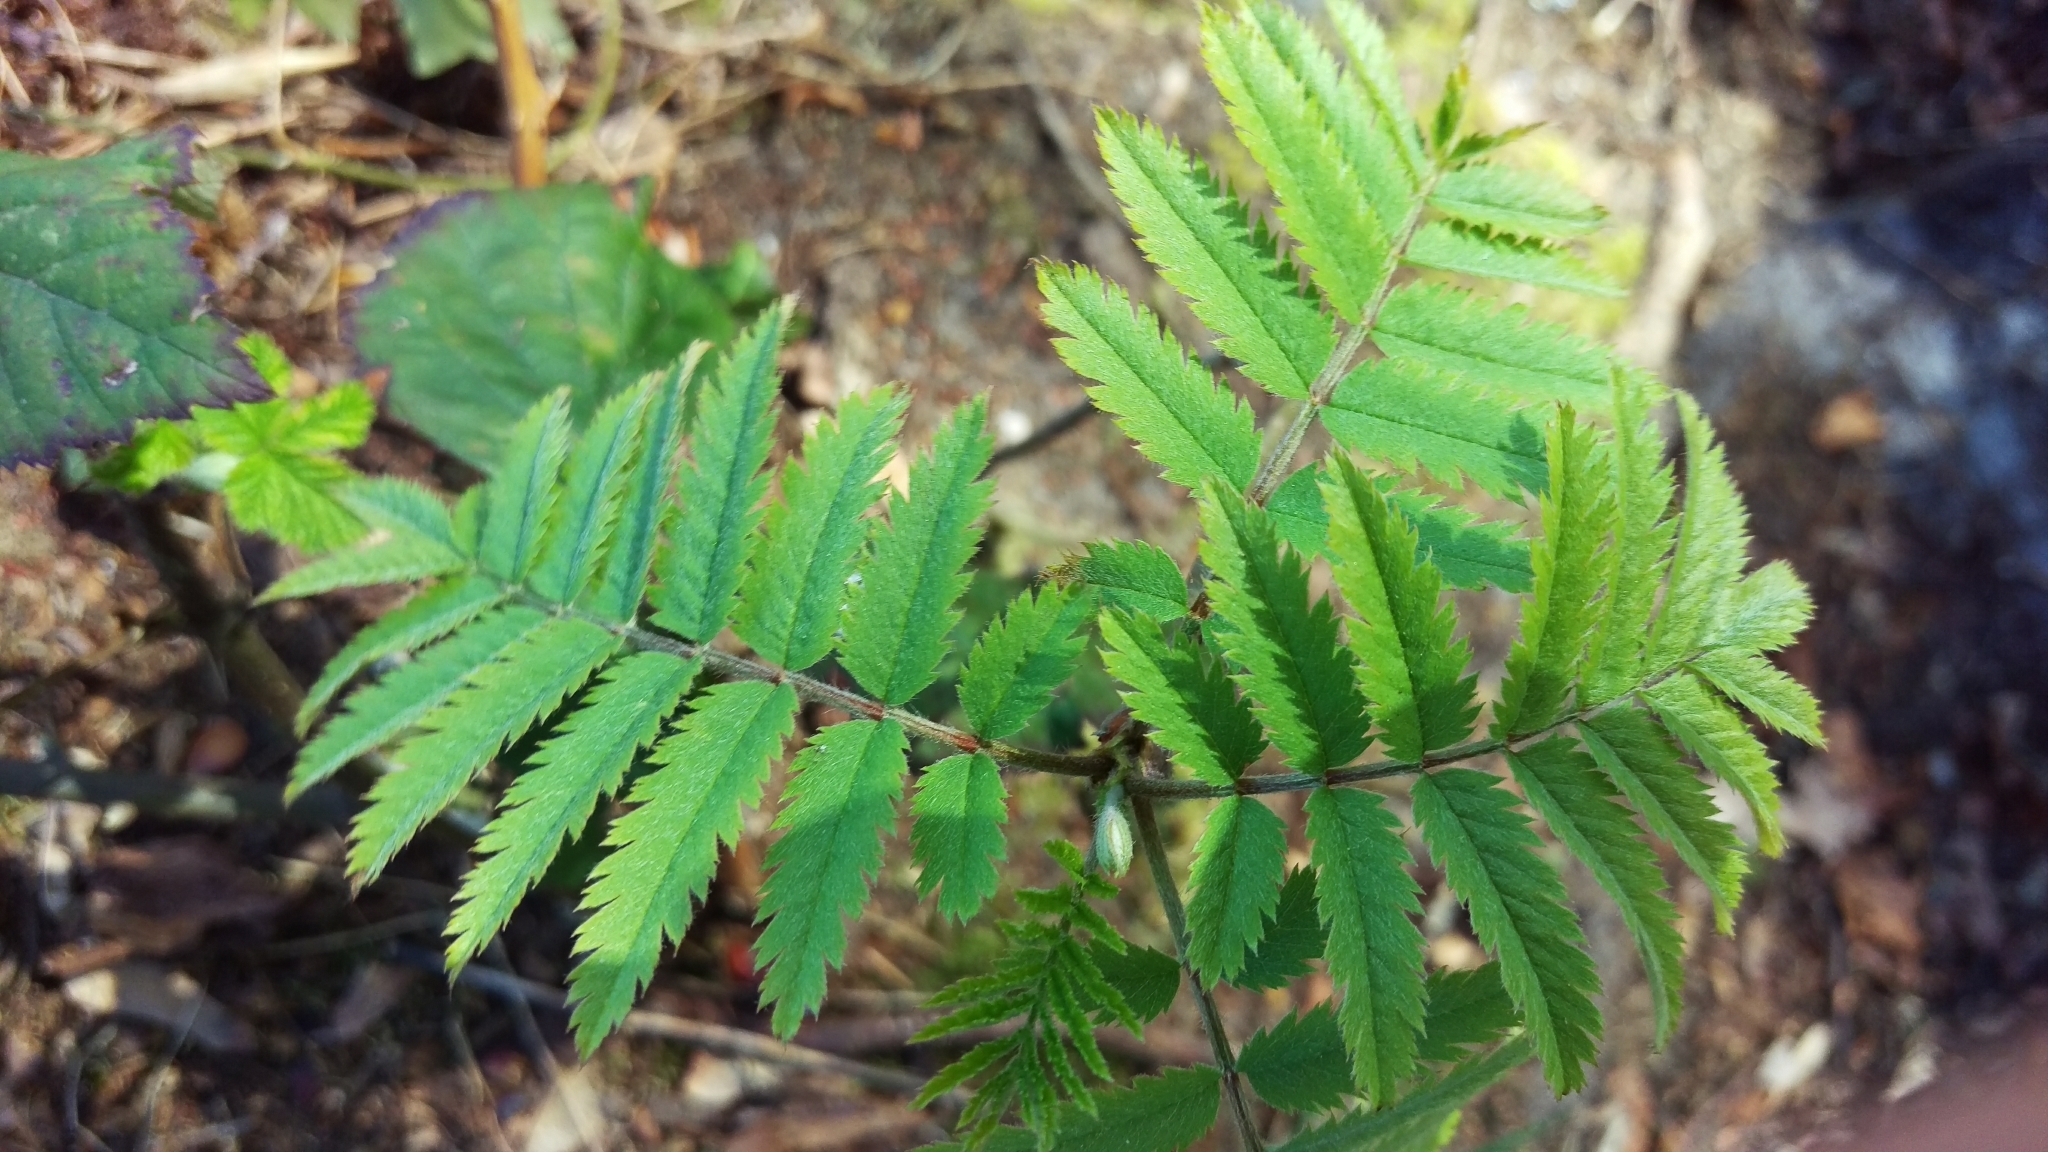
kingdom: Plantae
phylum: Tracheophyta
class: Magnoliopsida
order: Rosales
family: Rosaceae
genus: Sorbus
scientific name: Sorbus aucuparia
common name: Rowan
